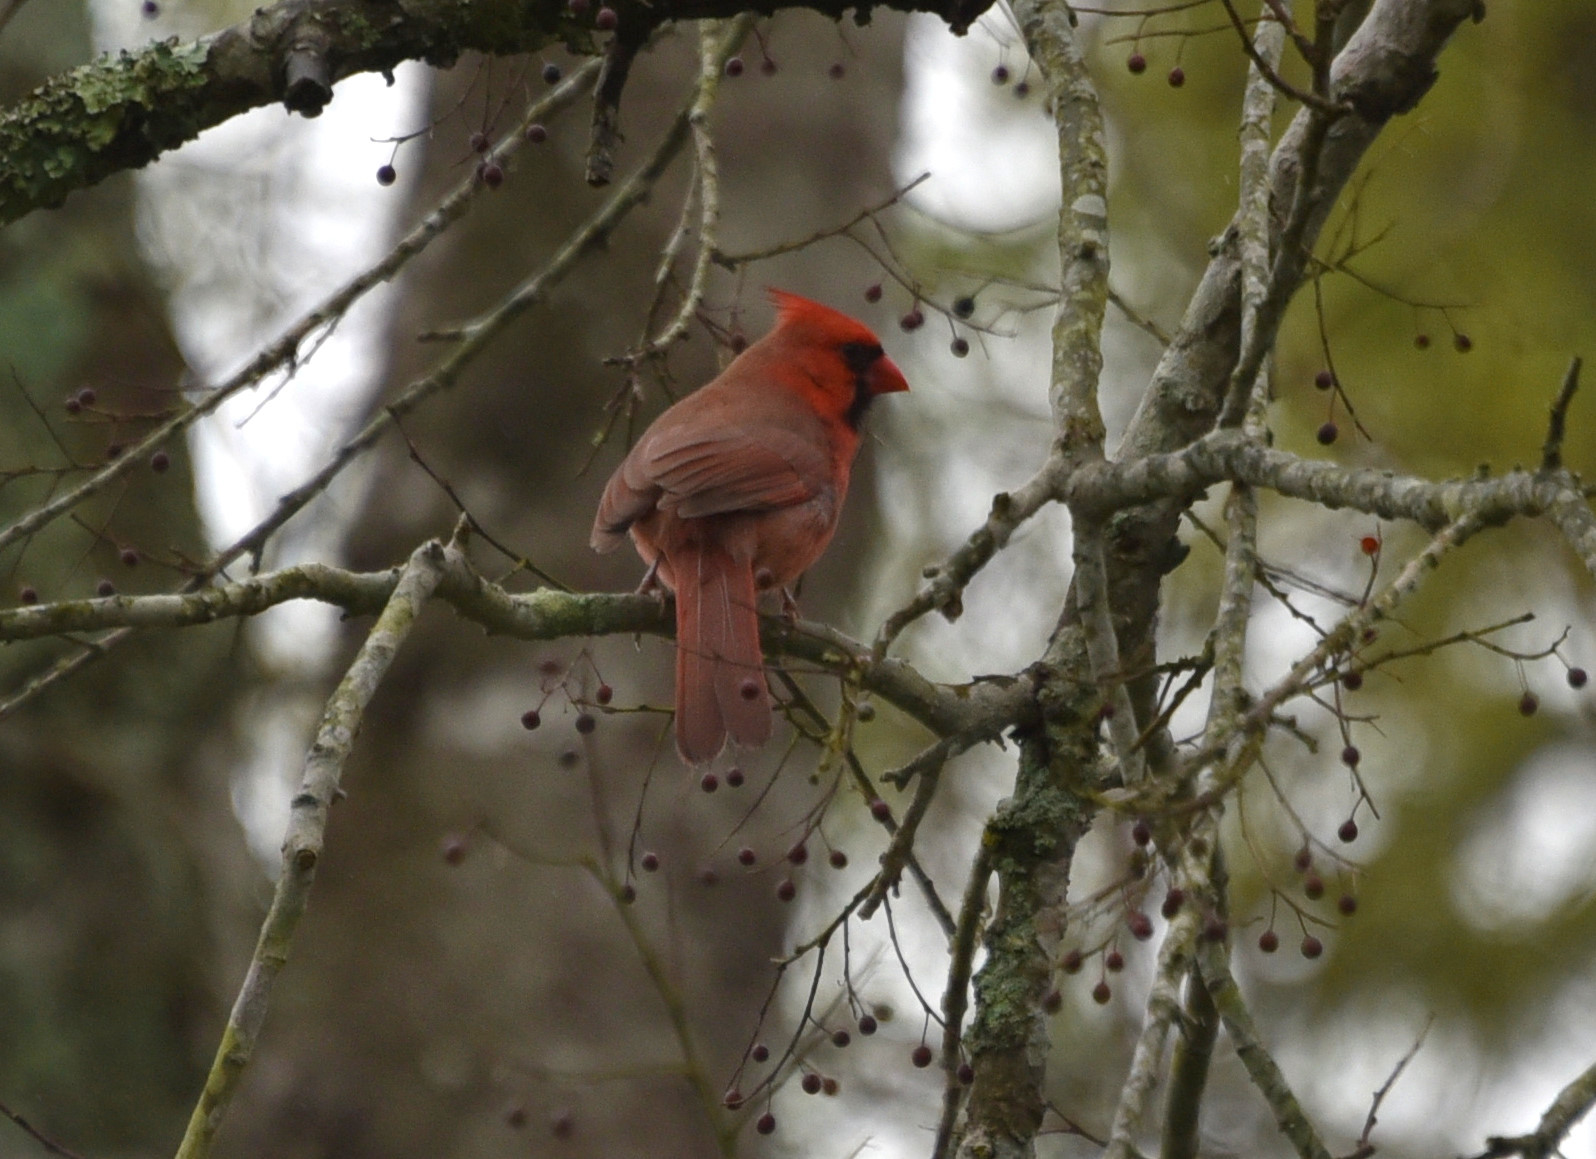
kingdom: Animalia
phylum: Chordata
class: Aves
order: Passeriformes
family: Cardinalidae
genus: Cardinalis
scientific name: Cardinalis cardinalis
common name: Northern cardinal
